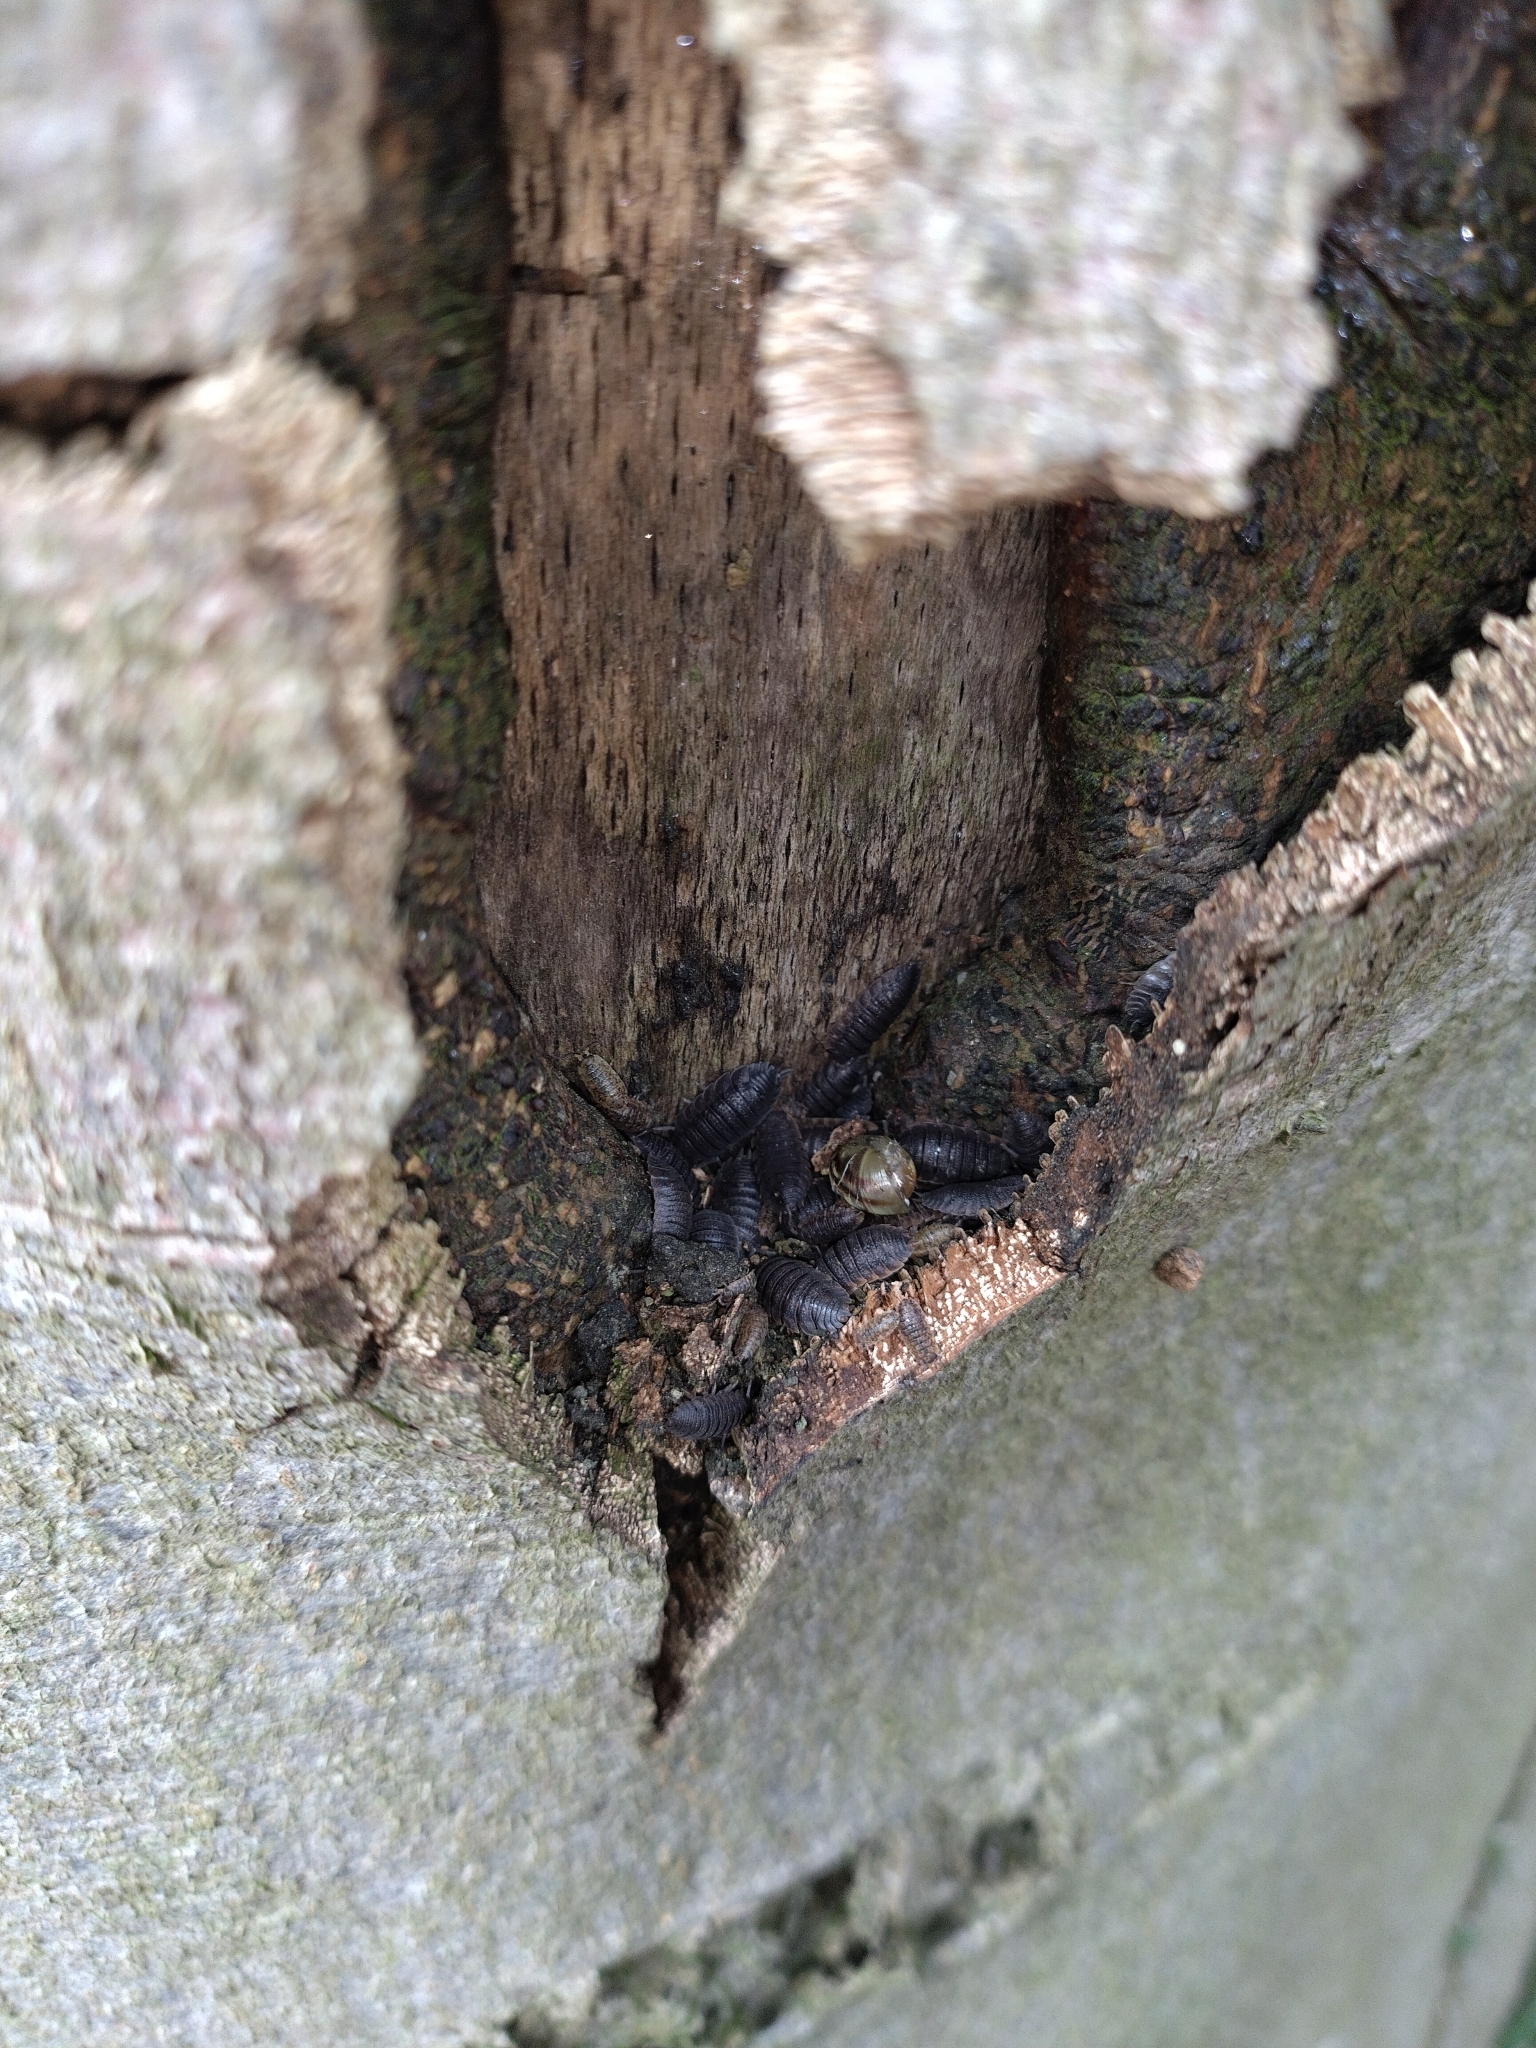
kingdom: Animalia
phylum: Arthropoda
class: Malacostraca
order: Isopoda
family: Porcellionidae
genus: Porcellio
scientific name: Porcellio scaber
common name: Common rough woodlouse
